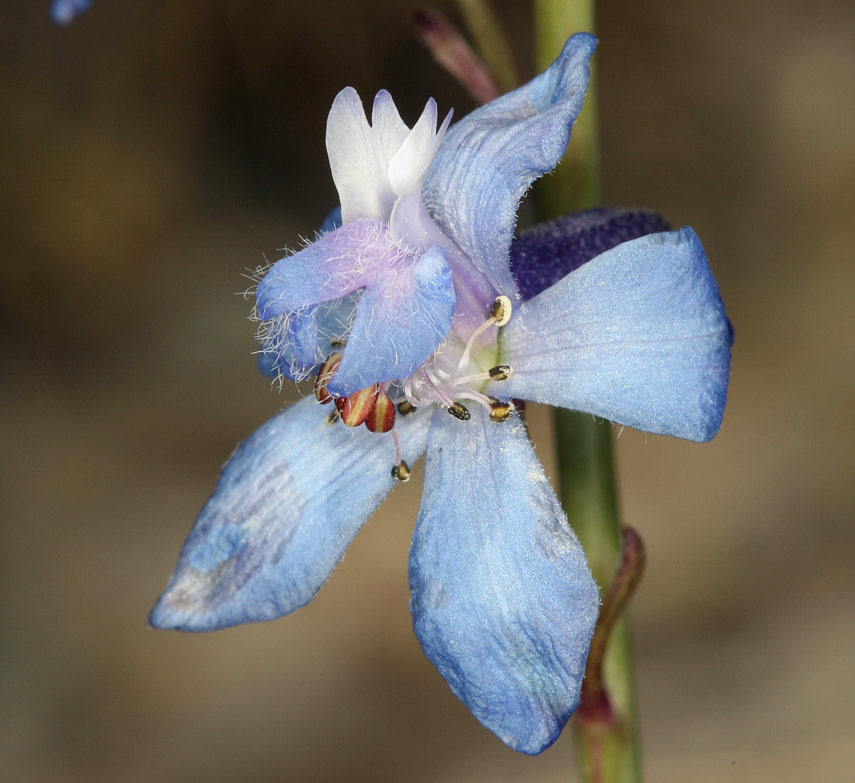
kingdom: Plantae
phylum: Tracheophyta
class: Magnoliopsida
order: Ranunculales
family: Ranunculaceae
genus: Delphinium
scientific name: Delphinium parishii
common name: Apache larkspur
